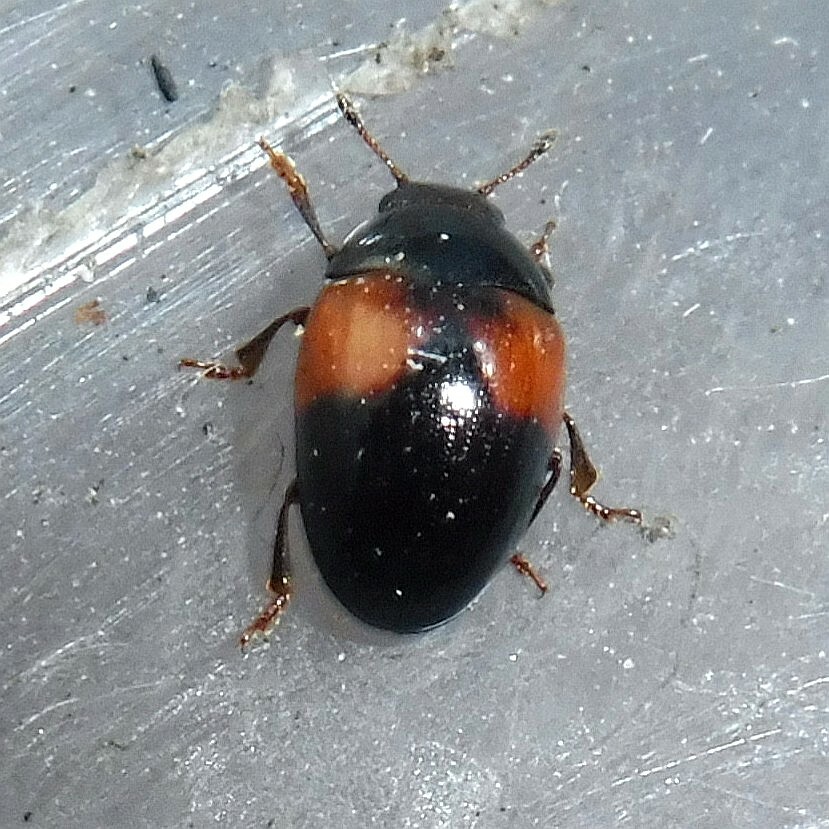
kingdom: Animalia
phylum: Arthropoda
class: Insecta
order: Coleoptera
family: Erotylidae
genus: Tritoma
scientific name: Tritoma bipustulata
